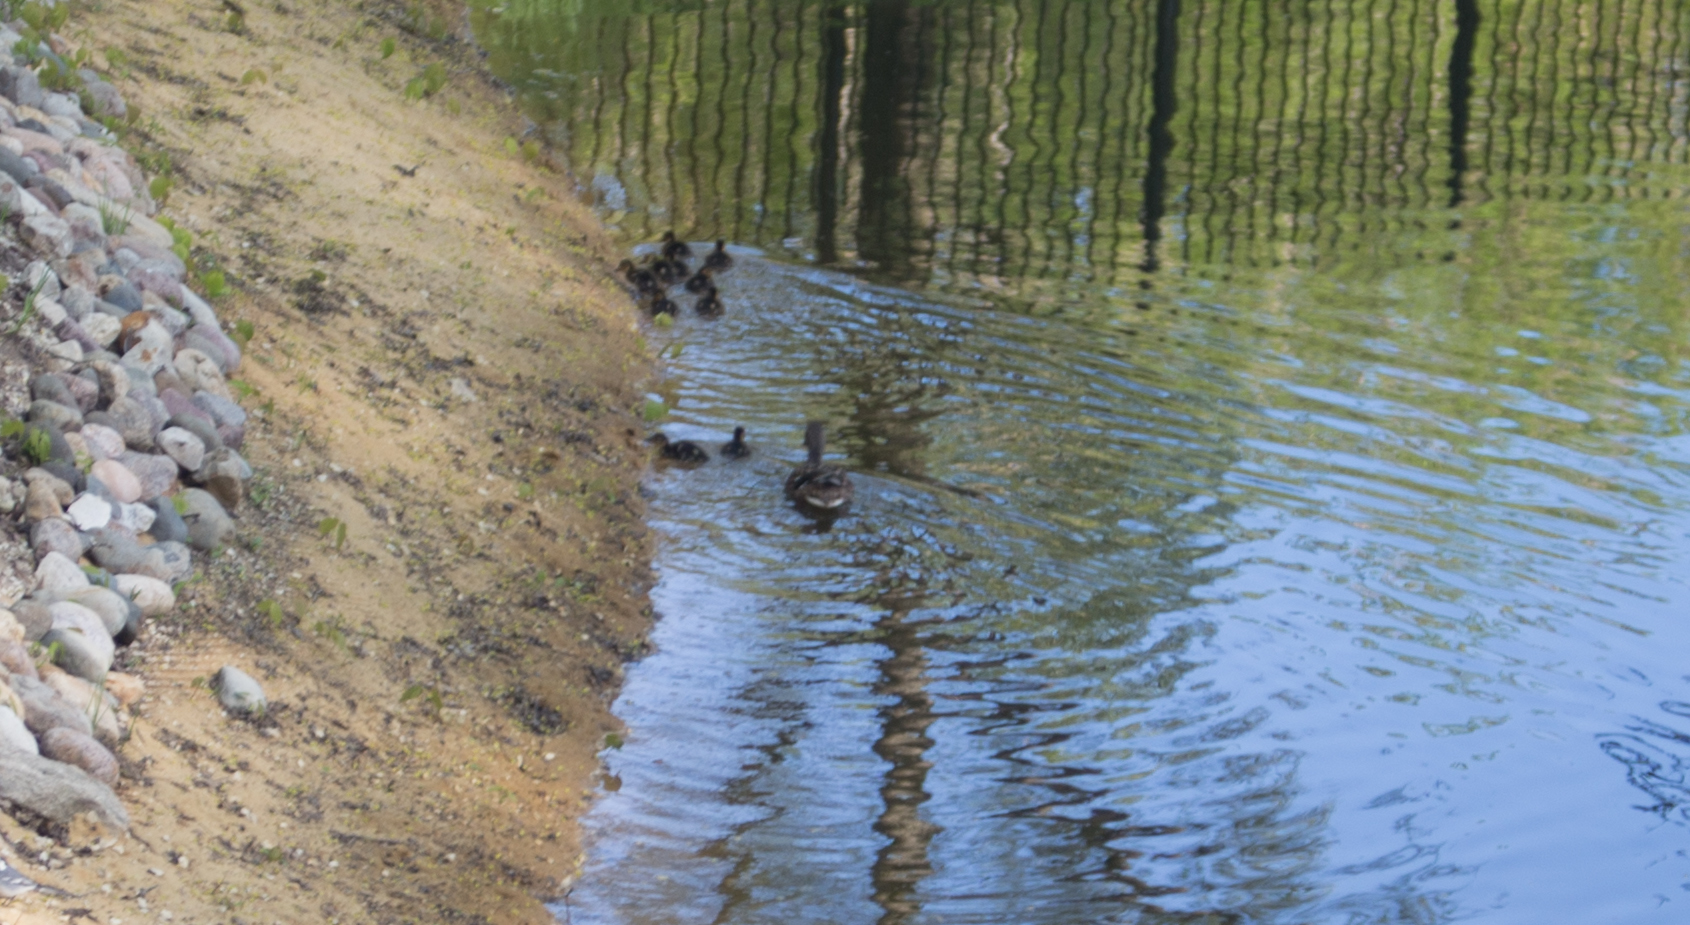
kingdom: Animalia
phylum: Chordata
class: Aves
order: Anseriformes
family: Anatidae
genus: Anas
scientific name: Anas platyrhynchos
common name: Mallard
